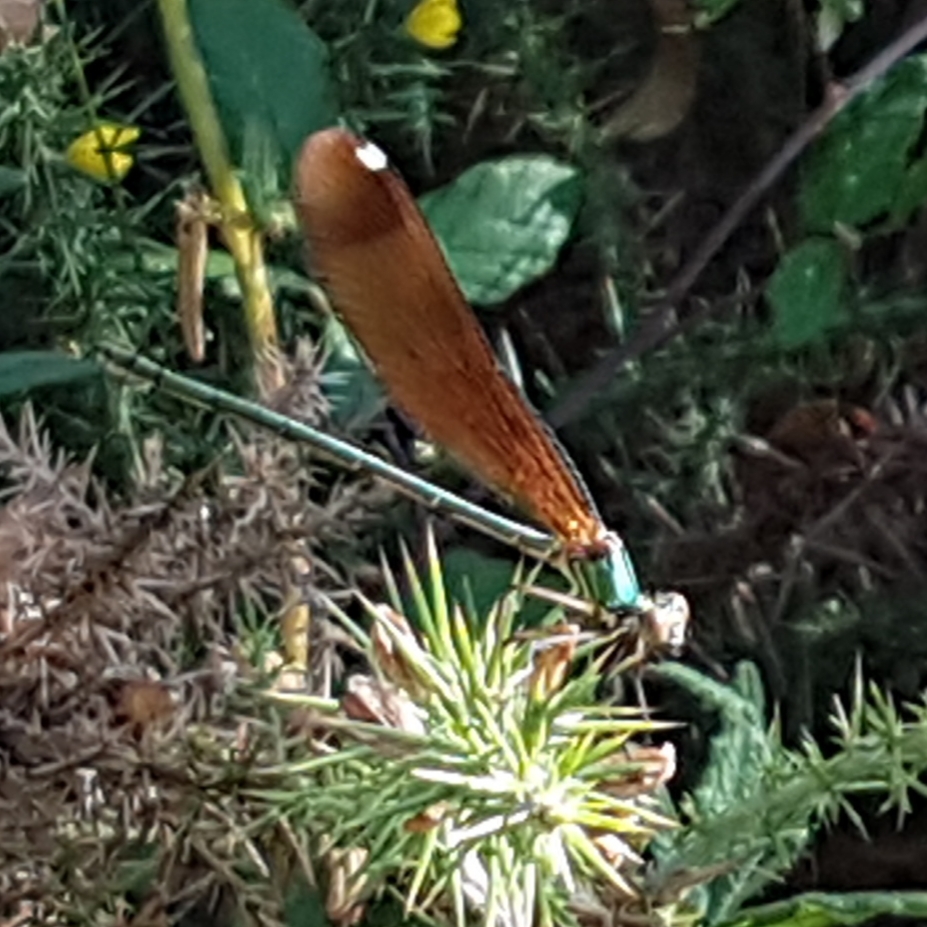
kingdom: Animalia
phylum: Arthropoda
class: Insecta
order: Odonata
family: Calopterygidae
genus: Calopteryx
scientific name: Calopteryx haemorrhoidalis
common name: Copper demoiselle
